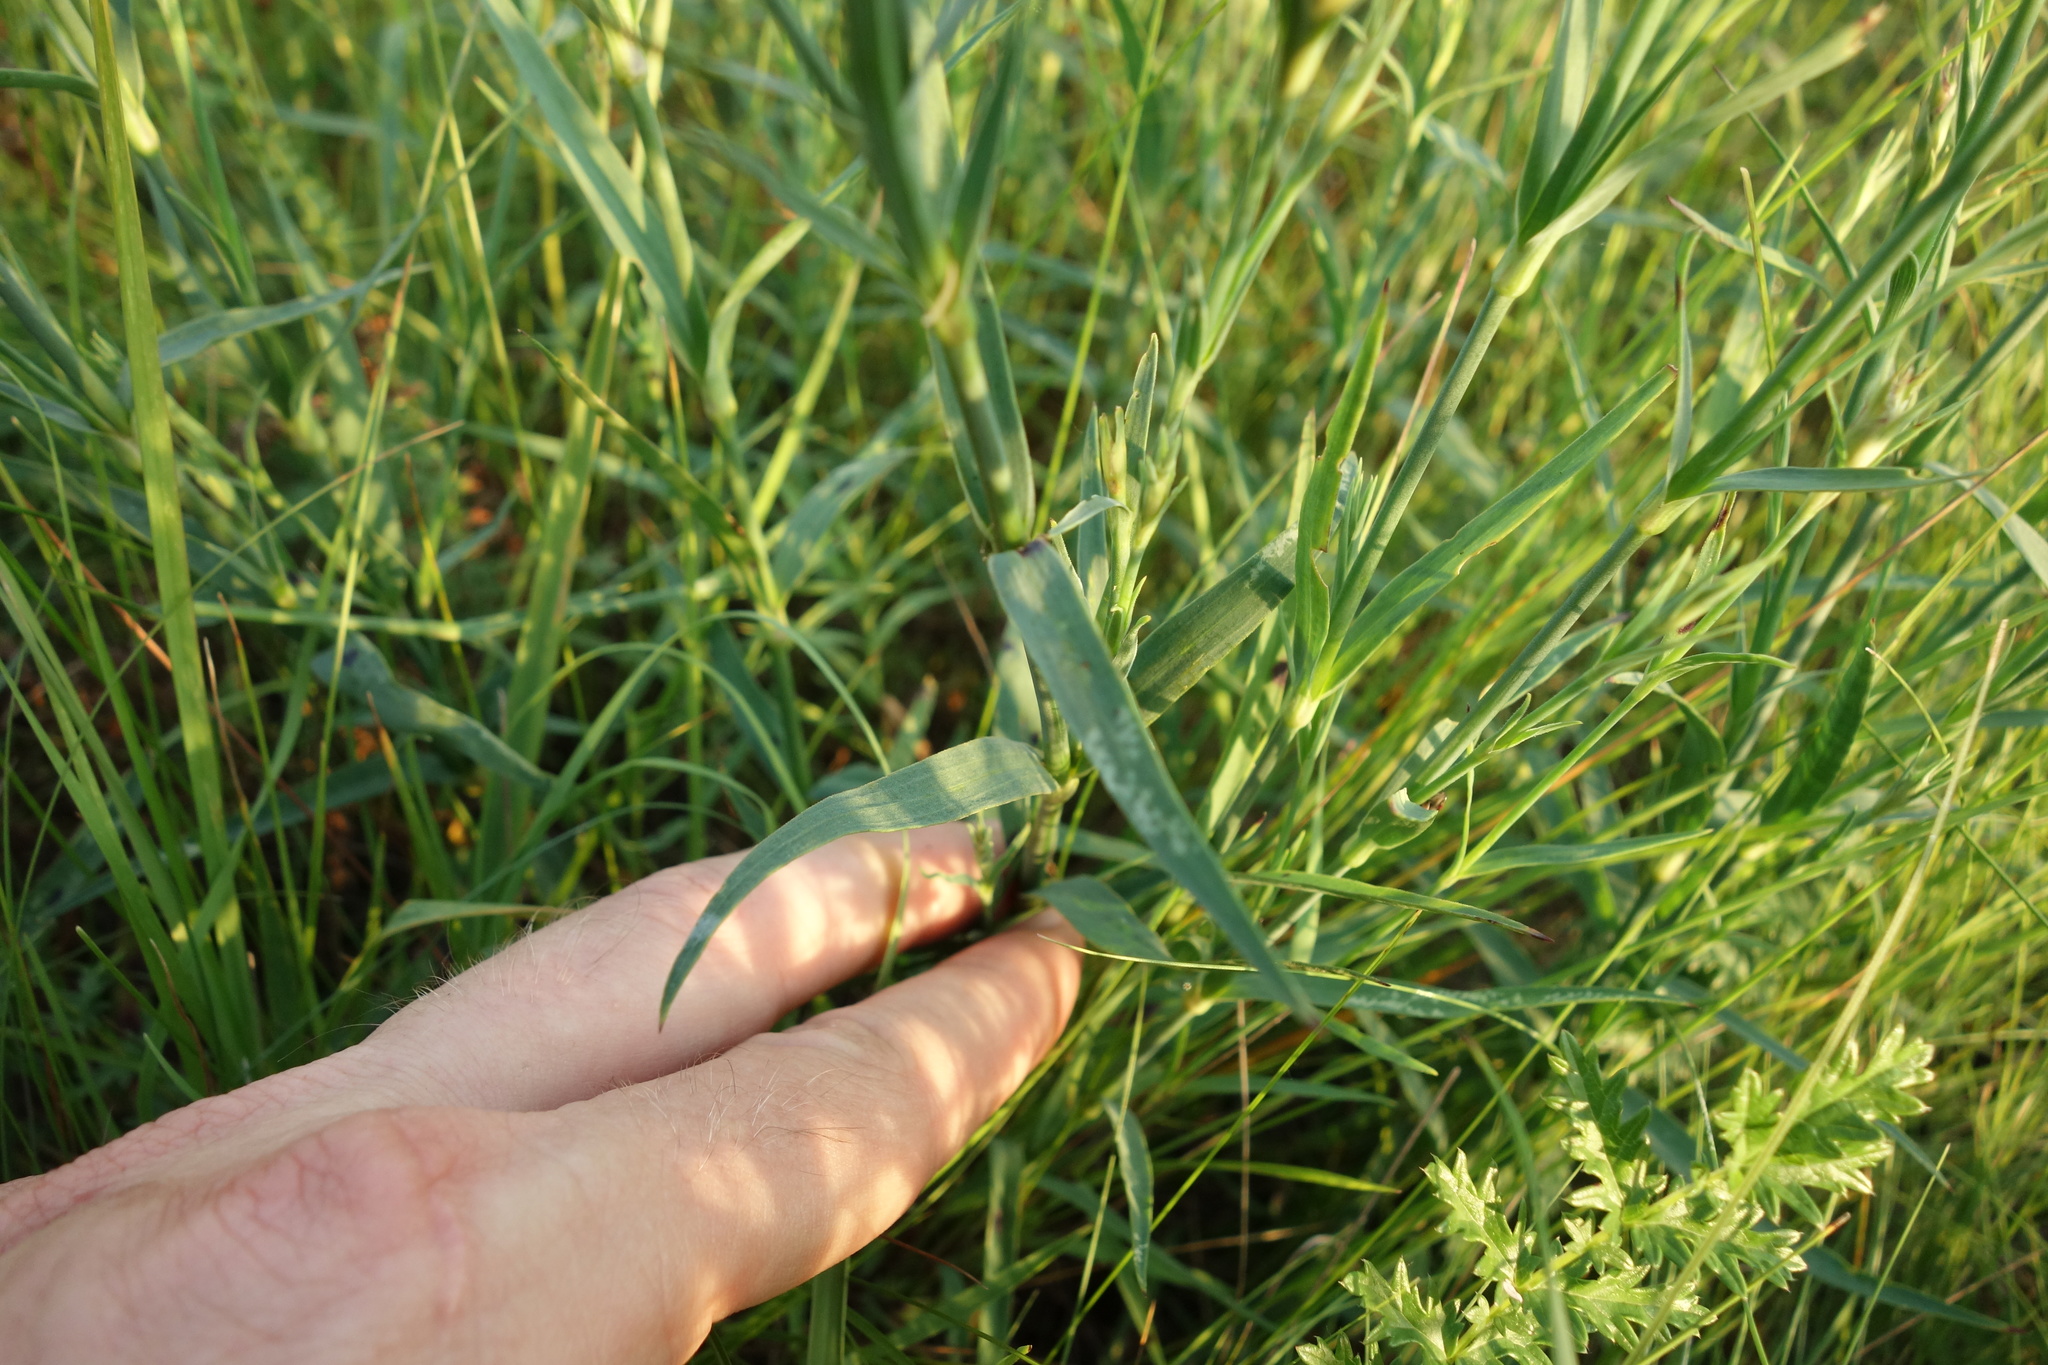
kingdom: Plantae
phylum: Tracheophyta
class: Magnoliopsida
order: Caryophyllales
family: Caryophyllaceae
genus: Dianthus
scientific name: Dianthus chinensis
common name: Rainbow pink
